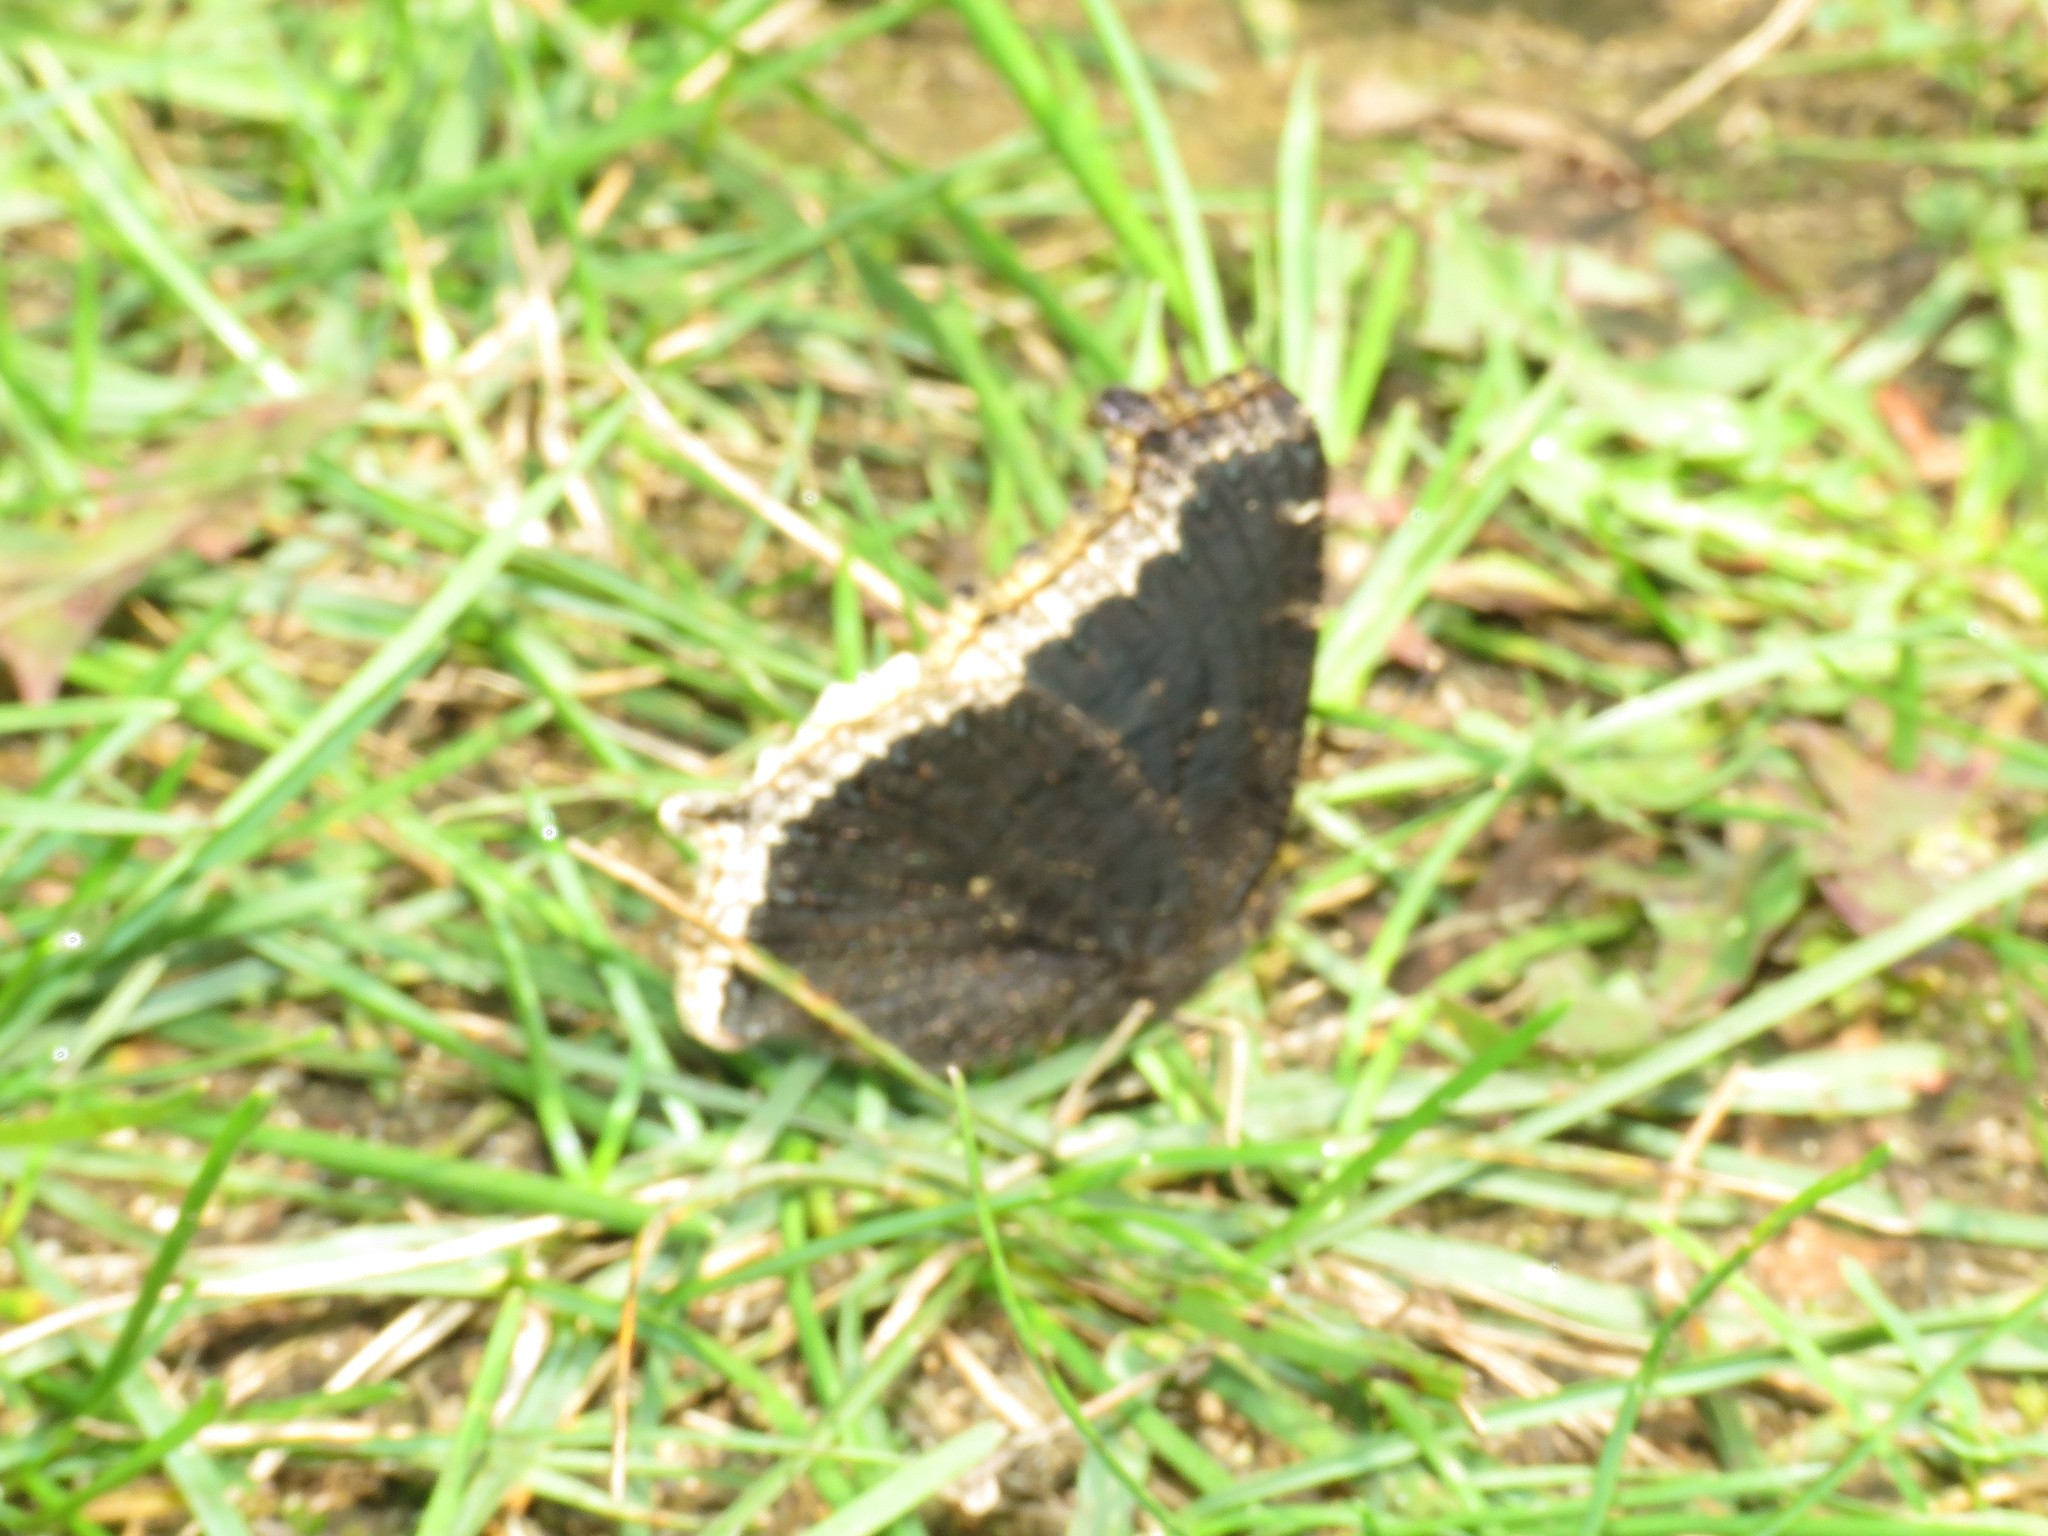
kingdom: Animalia
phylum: Arthropoda
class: Insecta
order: Lepidoptera
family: Nymphalidae
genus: Nymphalis
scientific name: Nymphalis antiopa
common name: Camberwell beauty
